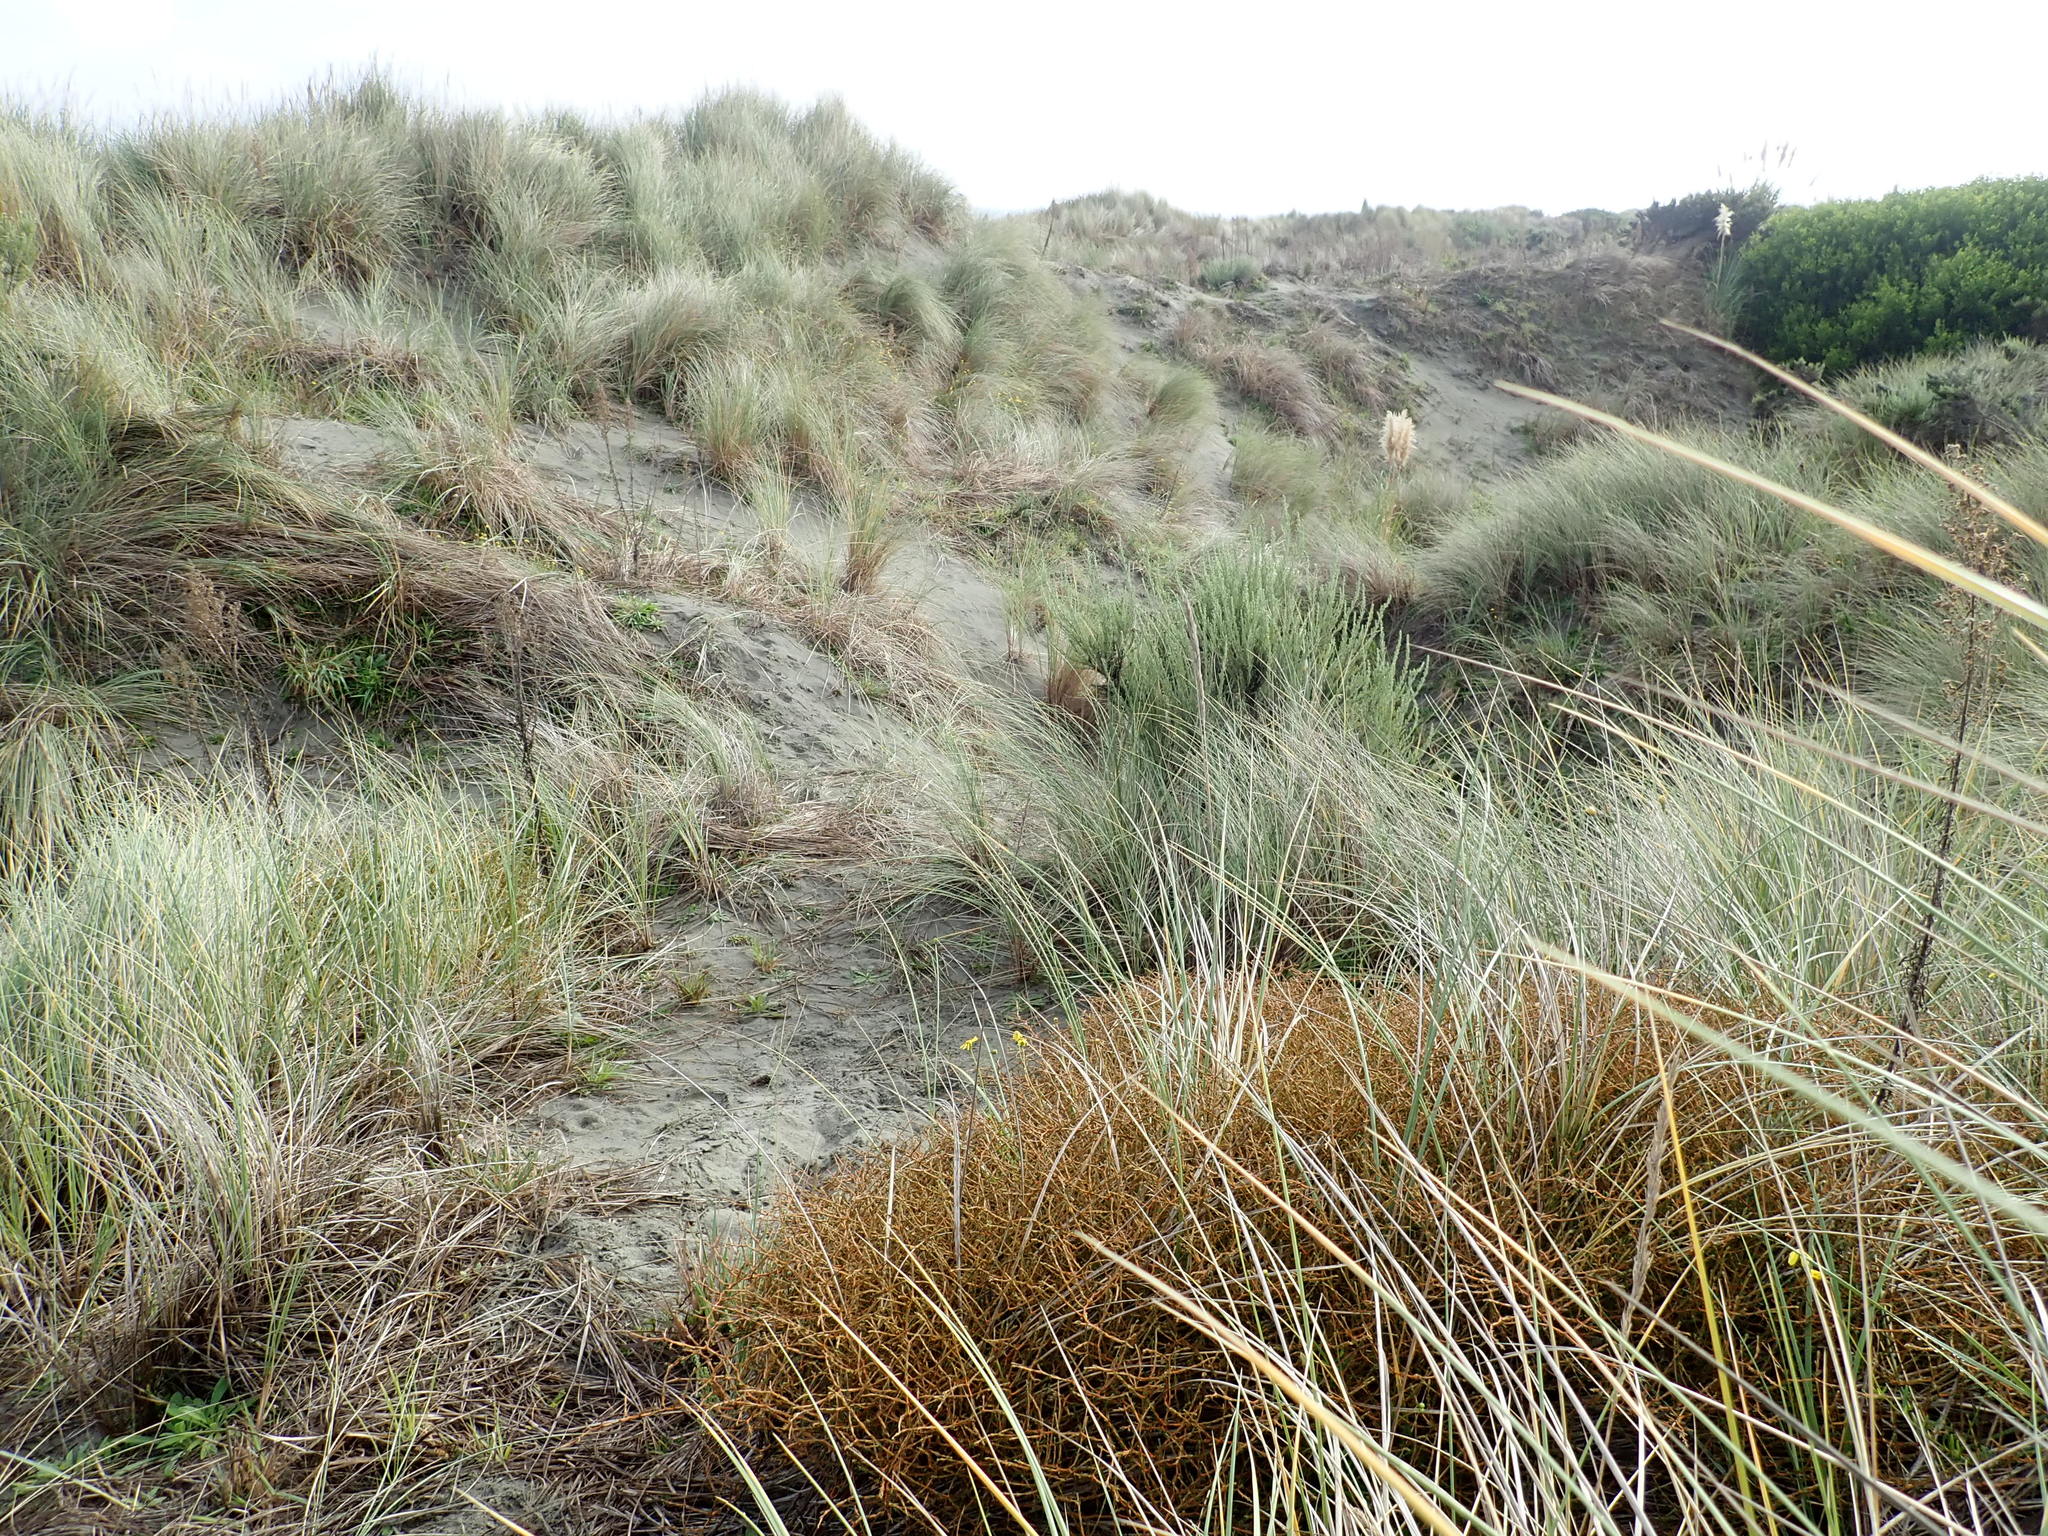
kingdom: Plantae
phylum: Tracheophyta
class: Magnoliopsida
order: Gentianales
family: Rubiaceae
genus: Coprosma
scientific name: Coprosma acerosa
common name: Sand coprosma
